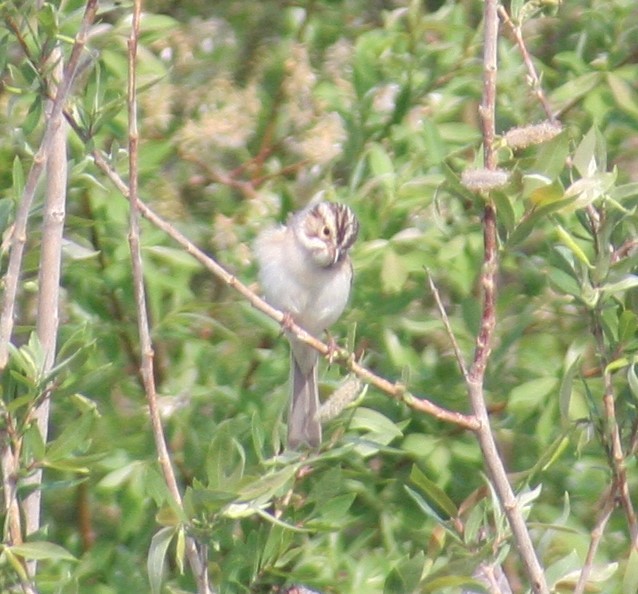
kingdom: Animalia
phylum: Chordata
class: Aves
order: Passeriformes
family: Passerellidae
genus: Spizella
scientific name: Spizella pallida
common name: Clay-colored sparrow
